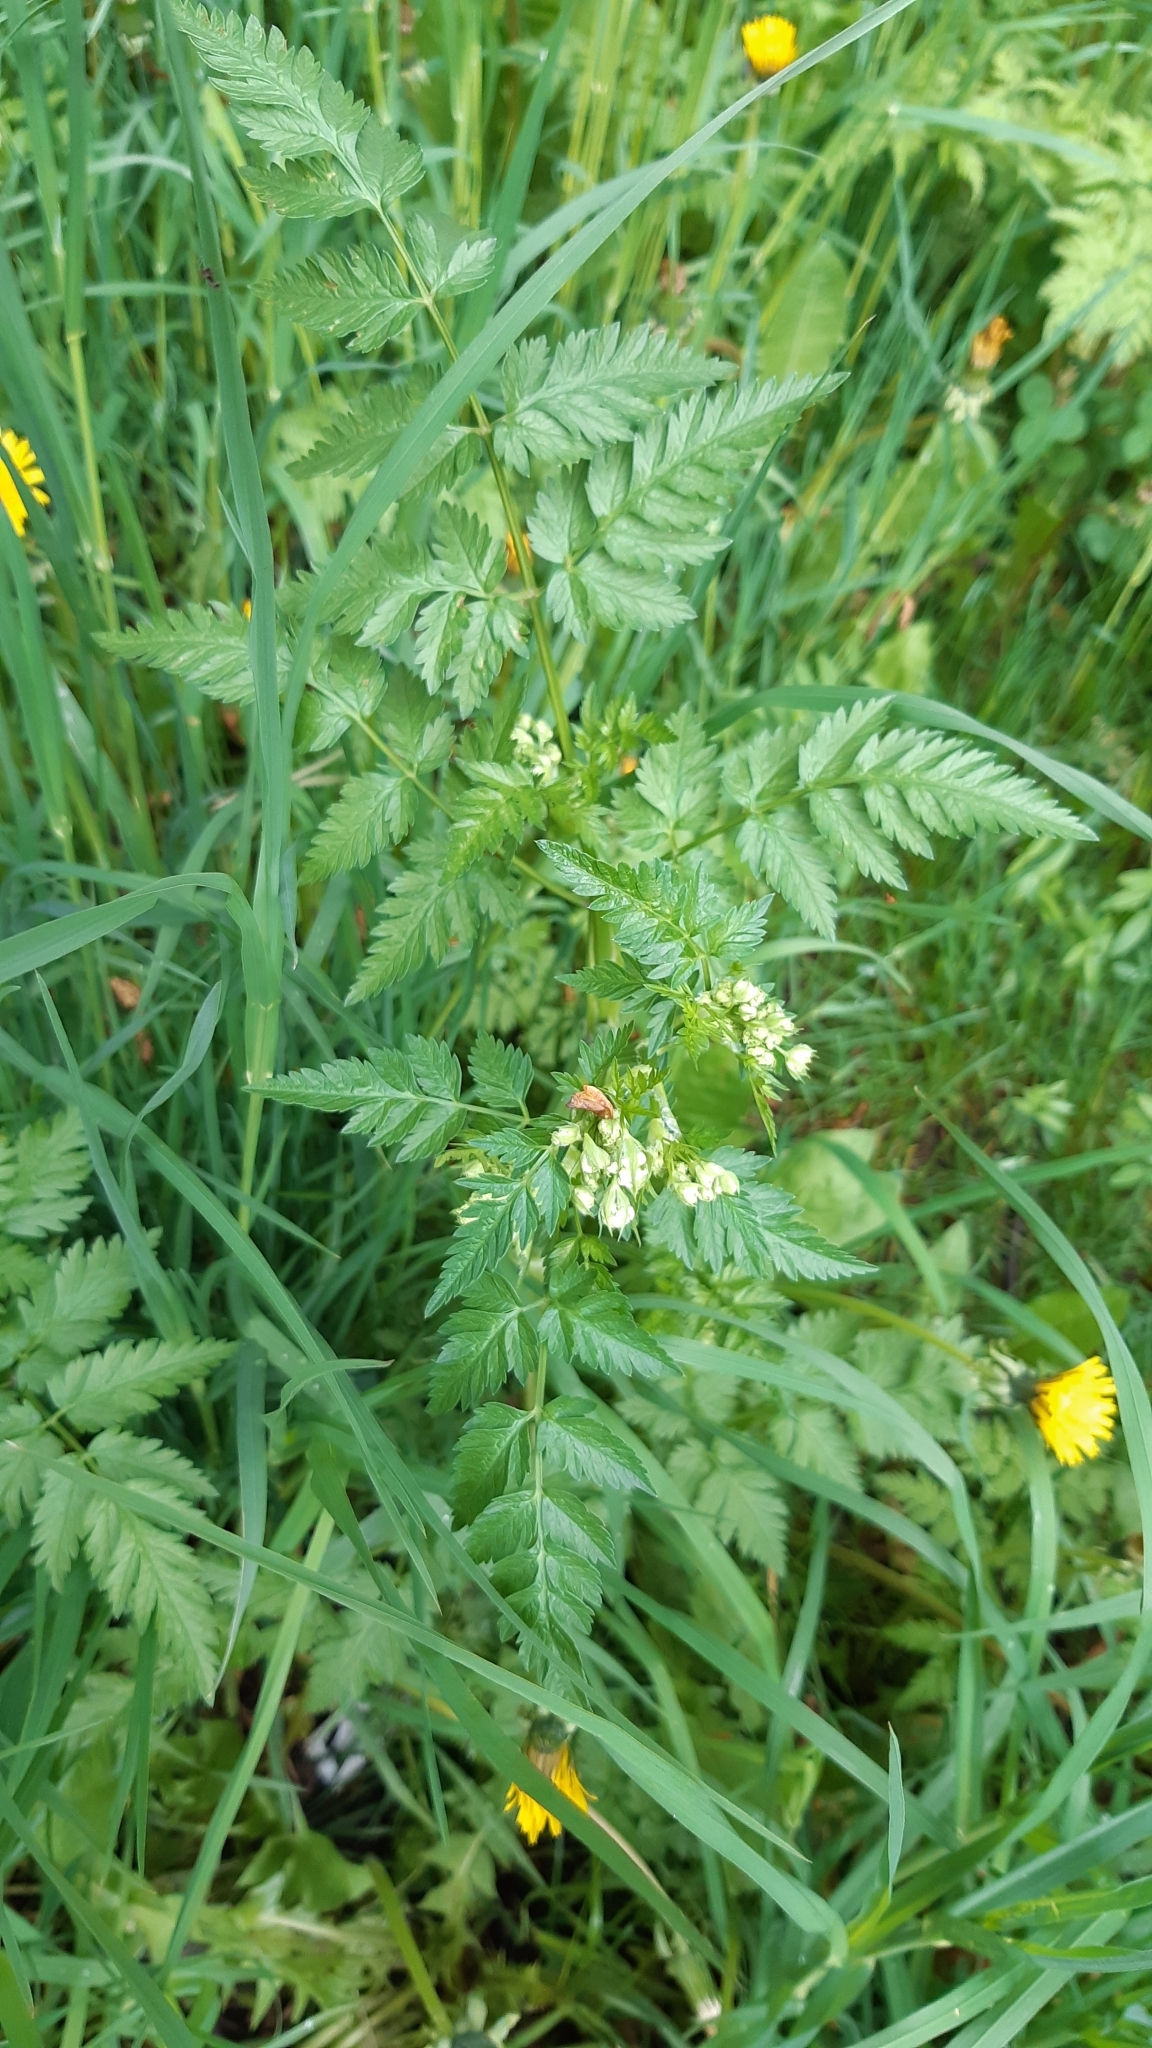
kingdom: Plantae
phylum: Tracheophyta
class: Magnoliopsida
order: Apiales
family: Apiaceae
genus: Anthriscus
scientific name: Anthriscus sylvestris
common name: Cow parsley
